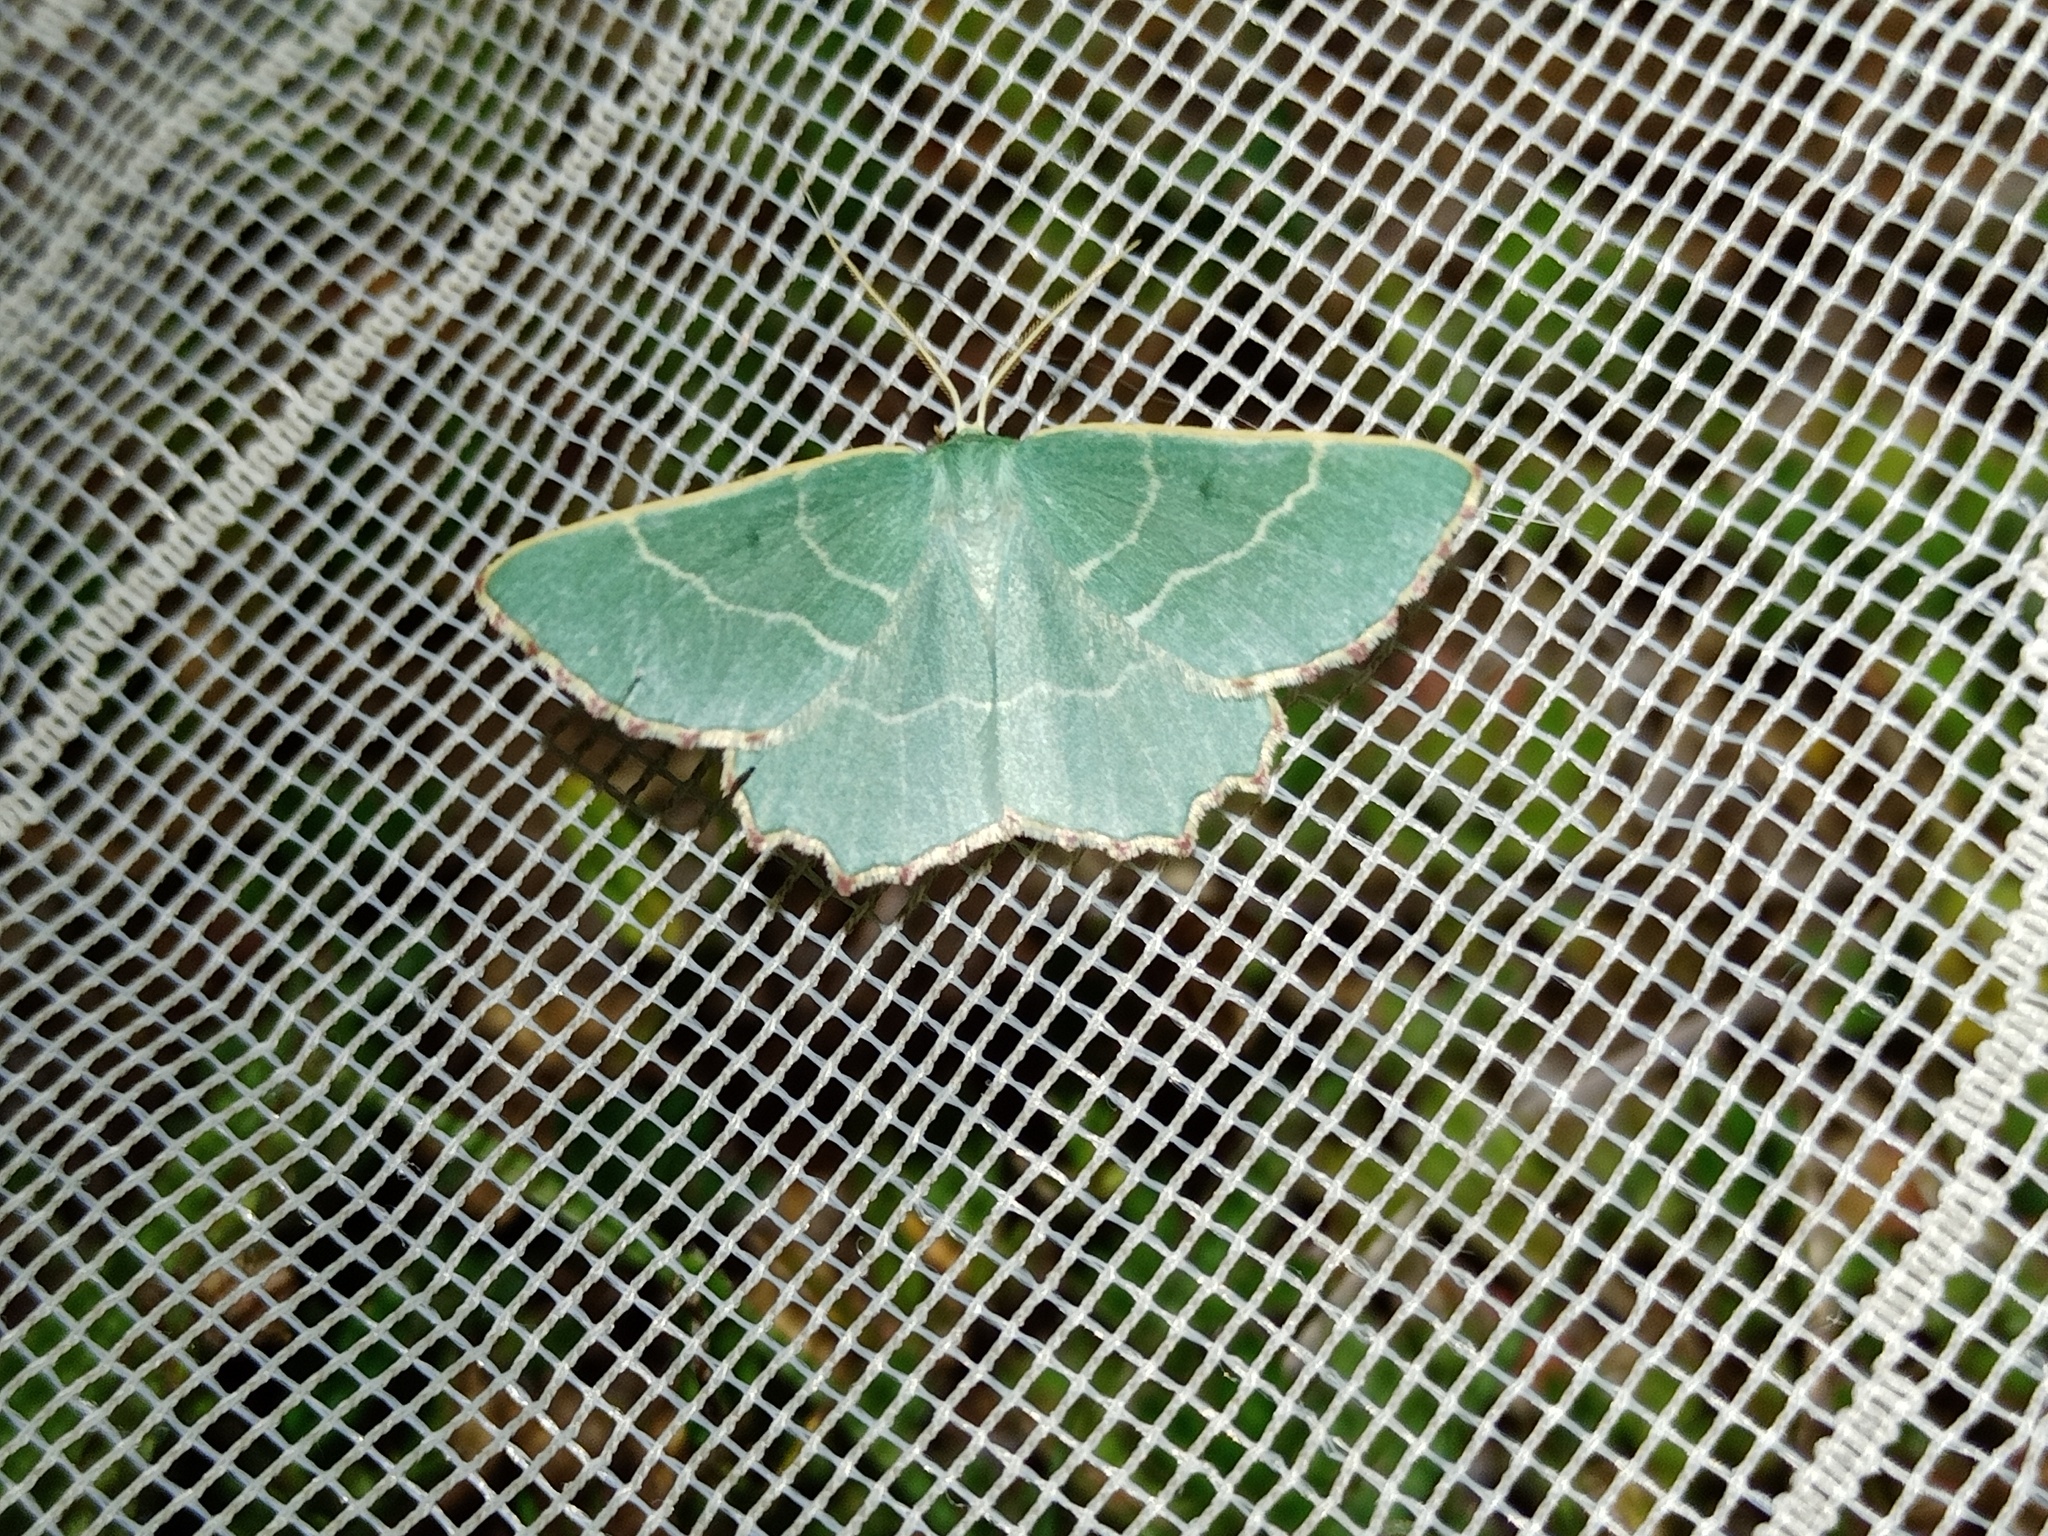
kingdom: Animalia
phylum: Arthropoda
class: Insecta
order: Lepidoptera
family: Geometridae
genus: Thalera
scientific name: Thalera fimbrialis
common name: Sussex emerald
